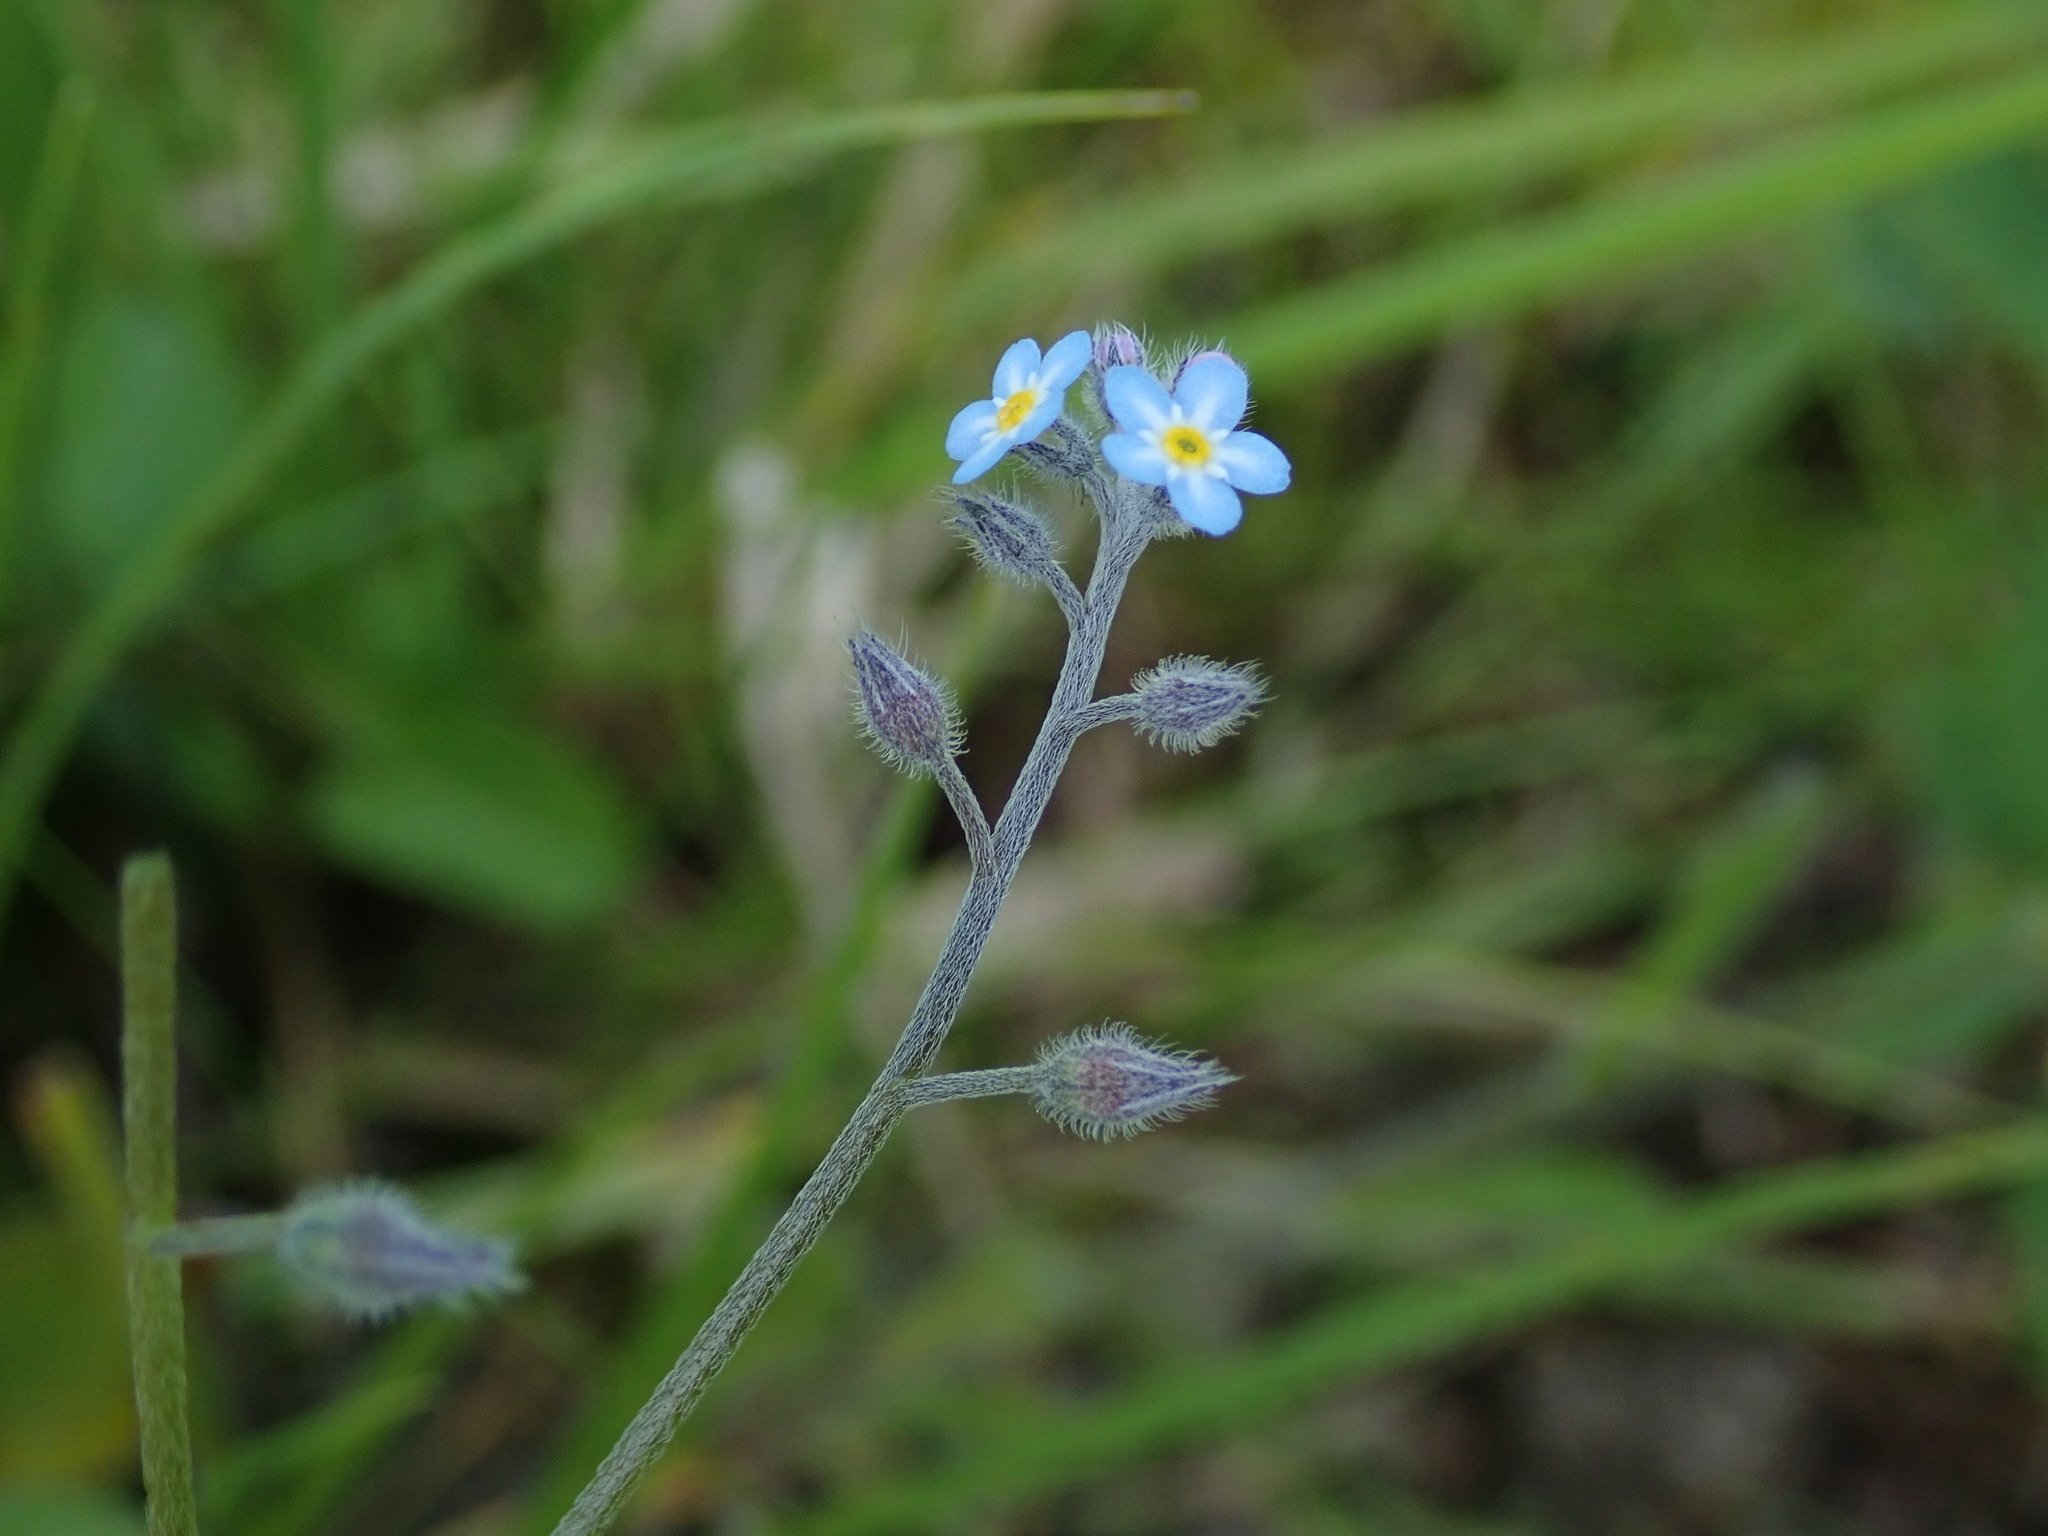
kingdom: Plantae
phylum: Tracheophyta
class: Magnoliopsida
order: Boraginales
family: Boraginaceae
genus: Myosotis
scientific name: Myosotis arvensis
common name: Field forget-me-not
